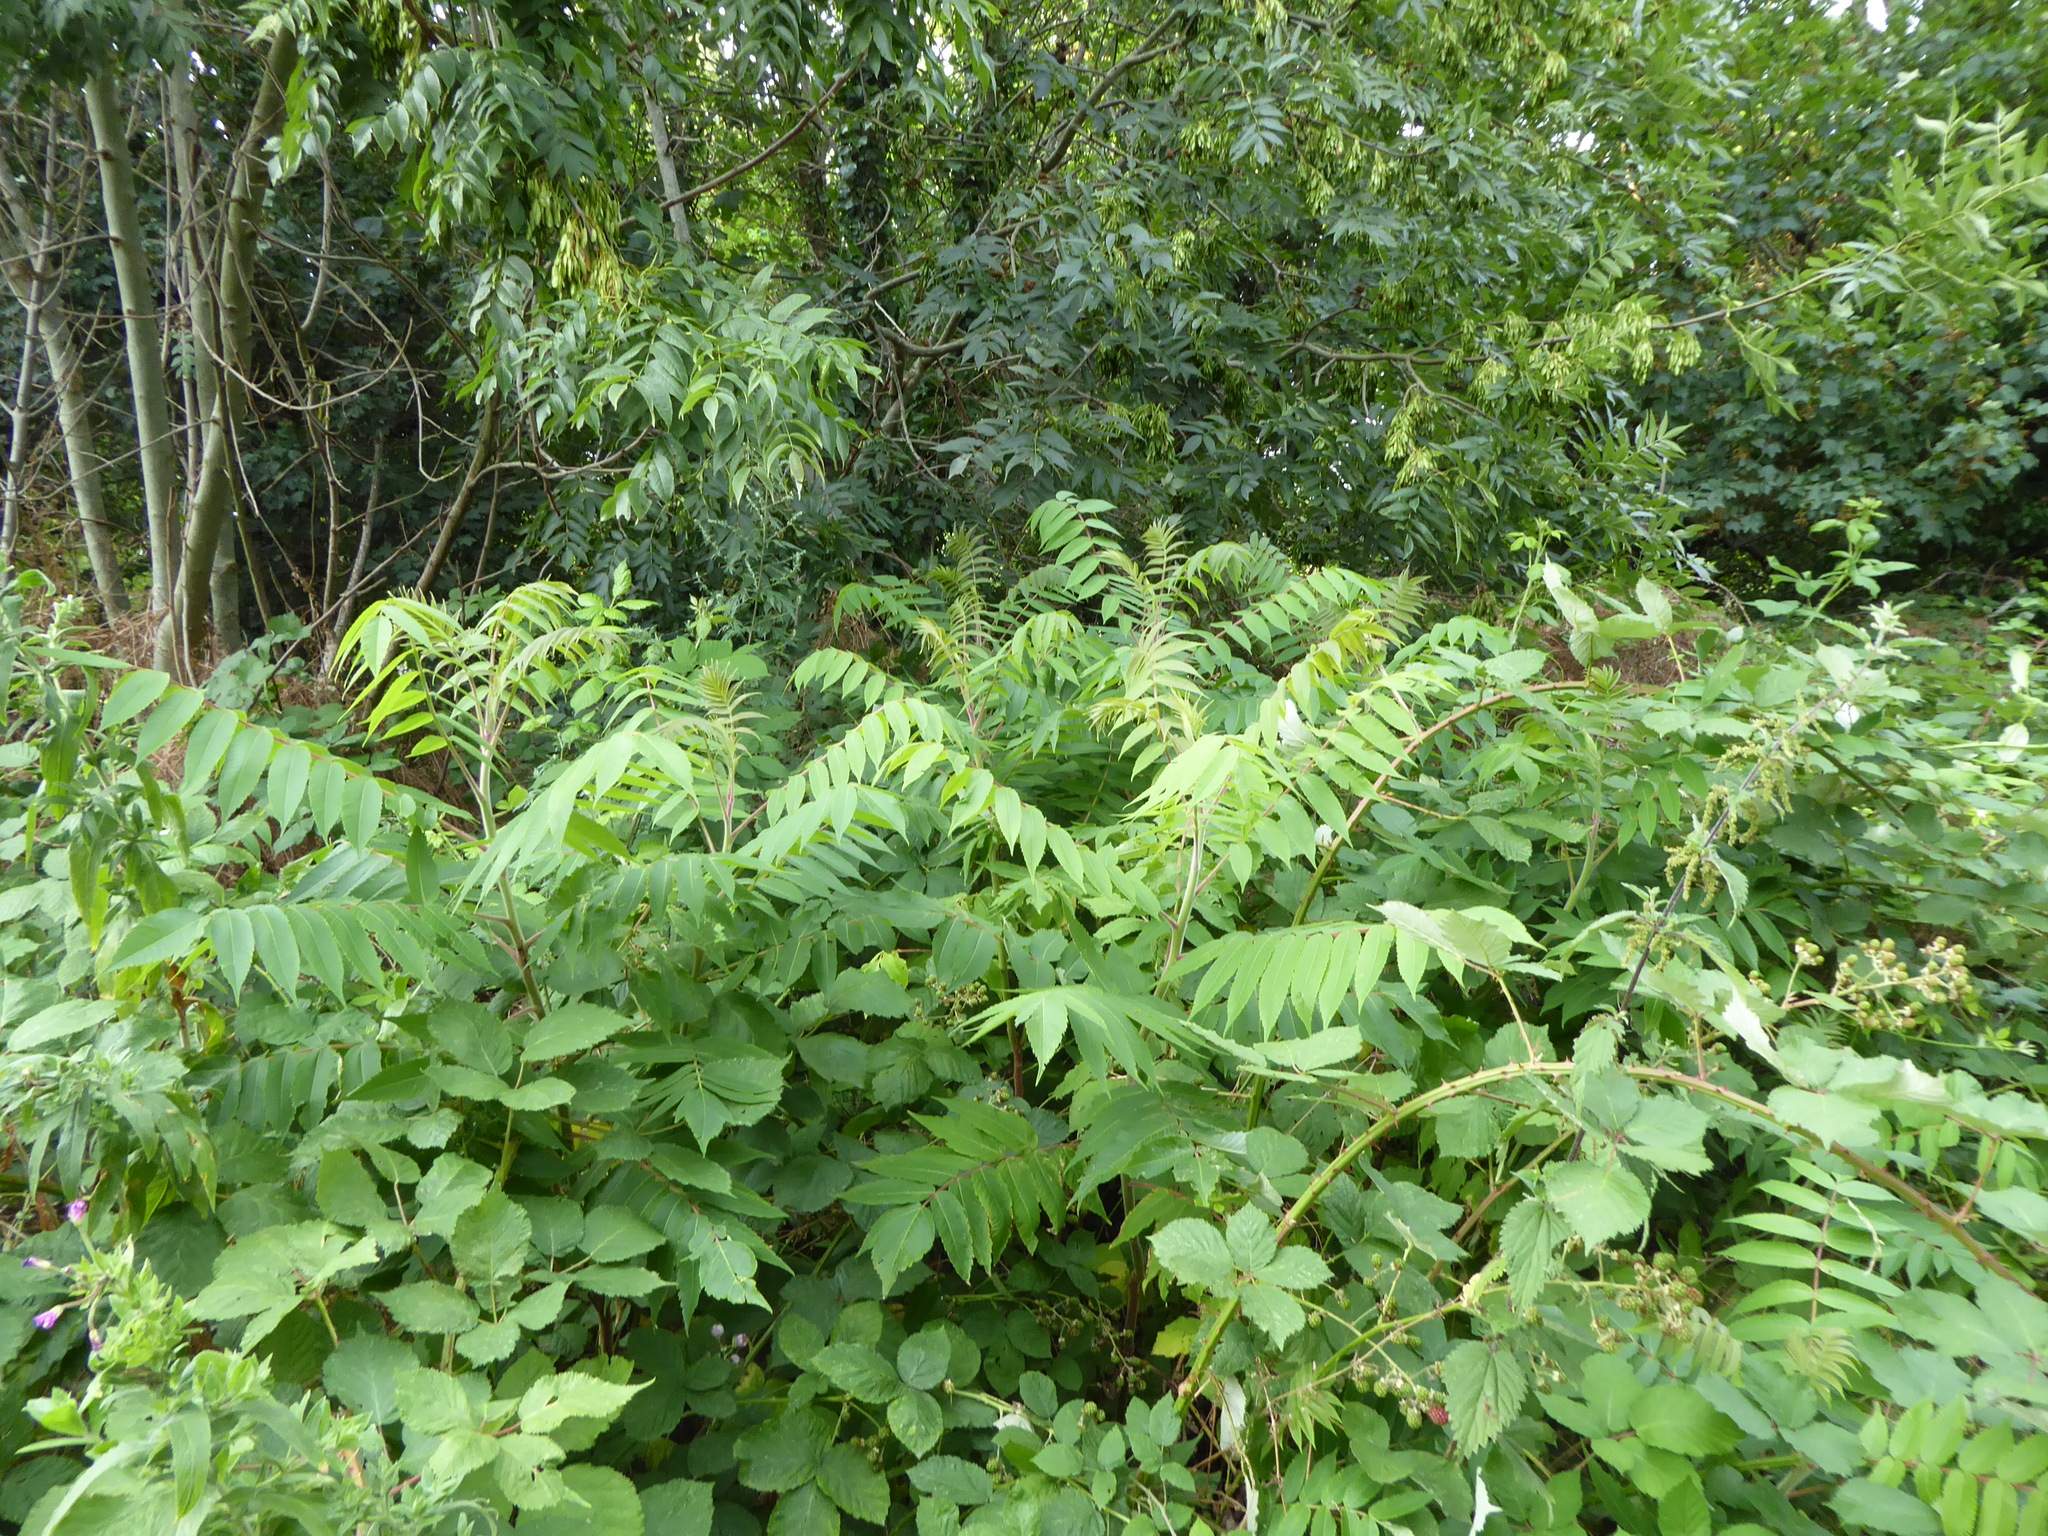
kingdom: Plantae
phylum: Tracheophyta
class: Magnoliopsida
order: Sapindales
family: Anacardiaceae
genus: Rhus
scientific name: Rhus typhina
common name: Staghorn sumac
